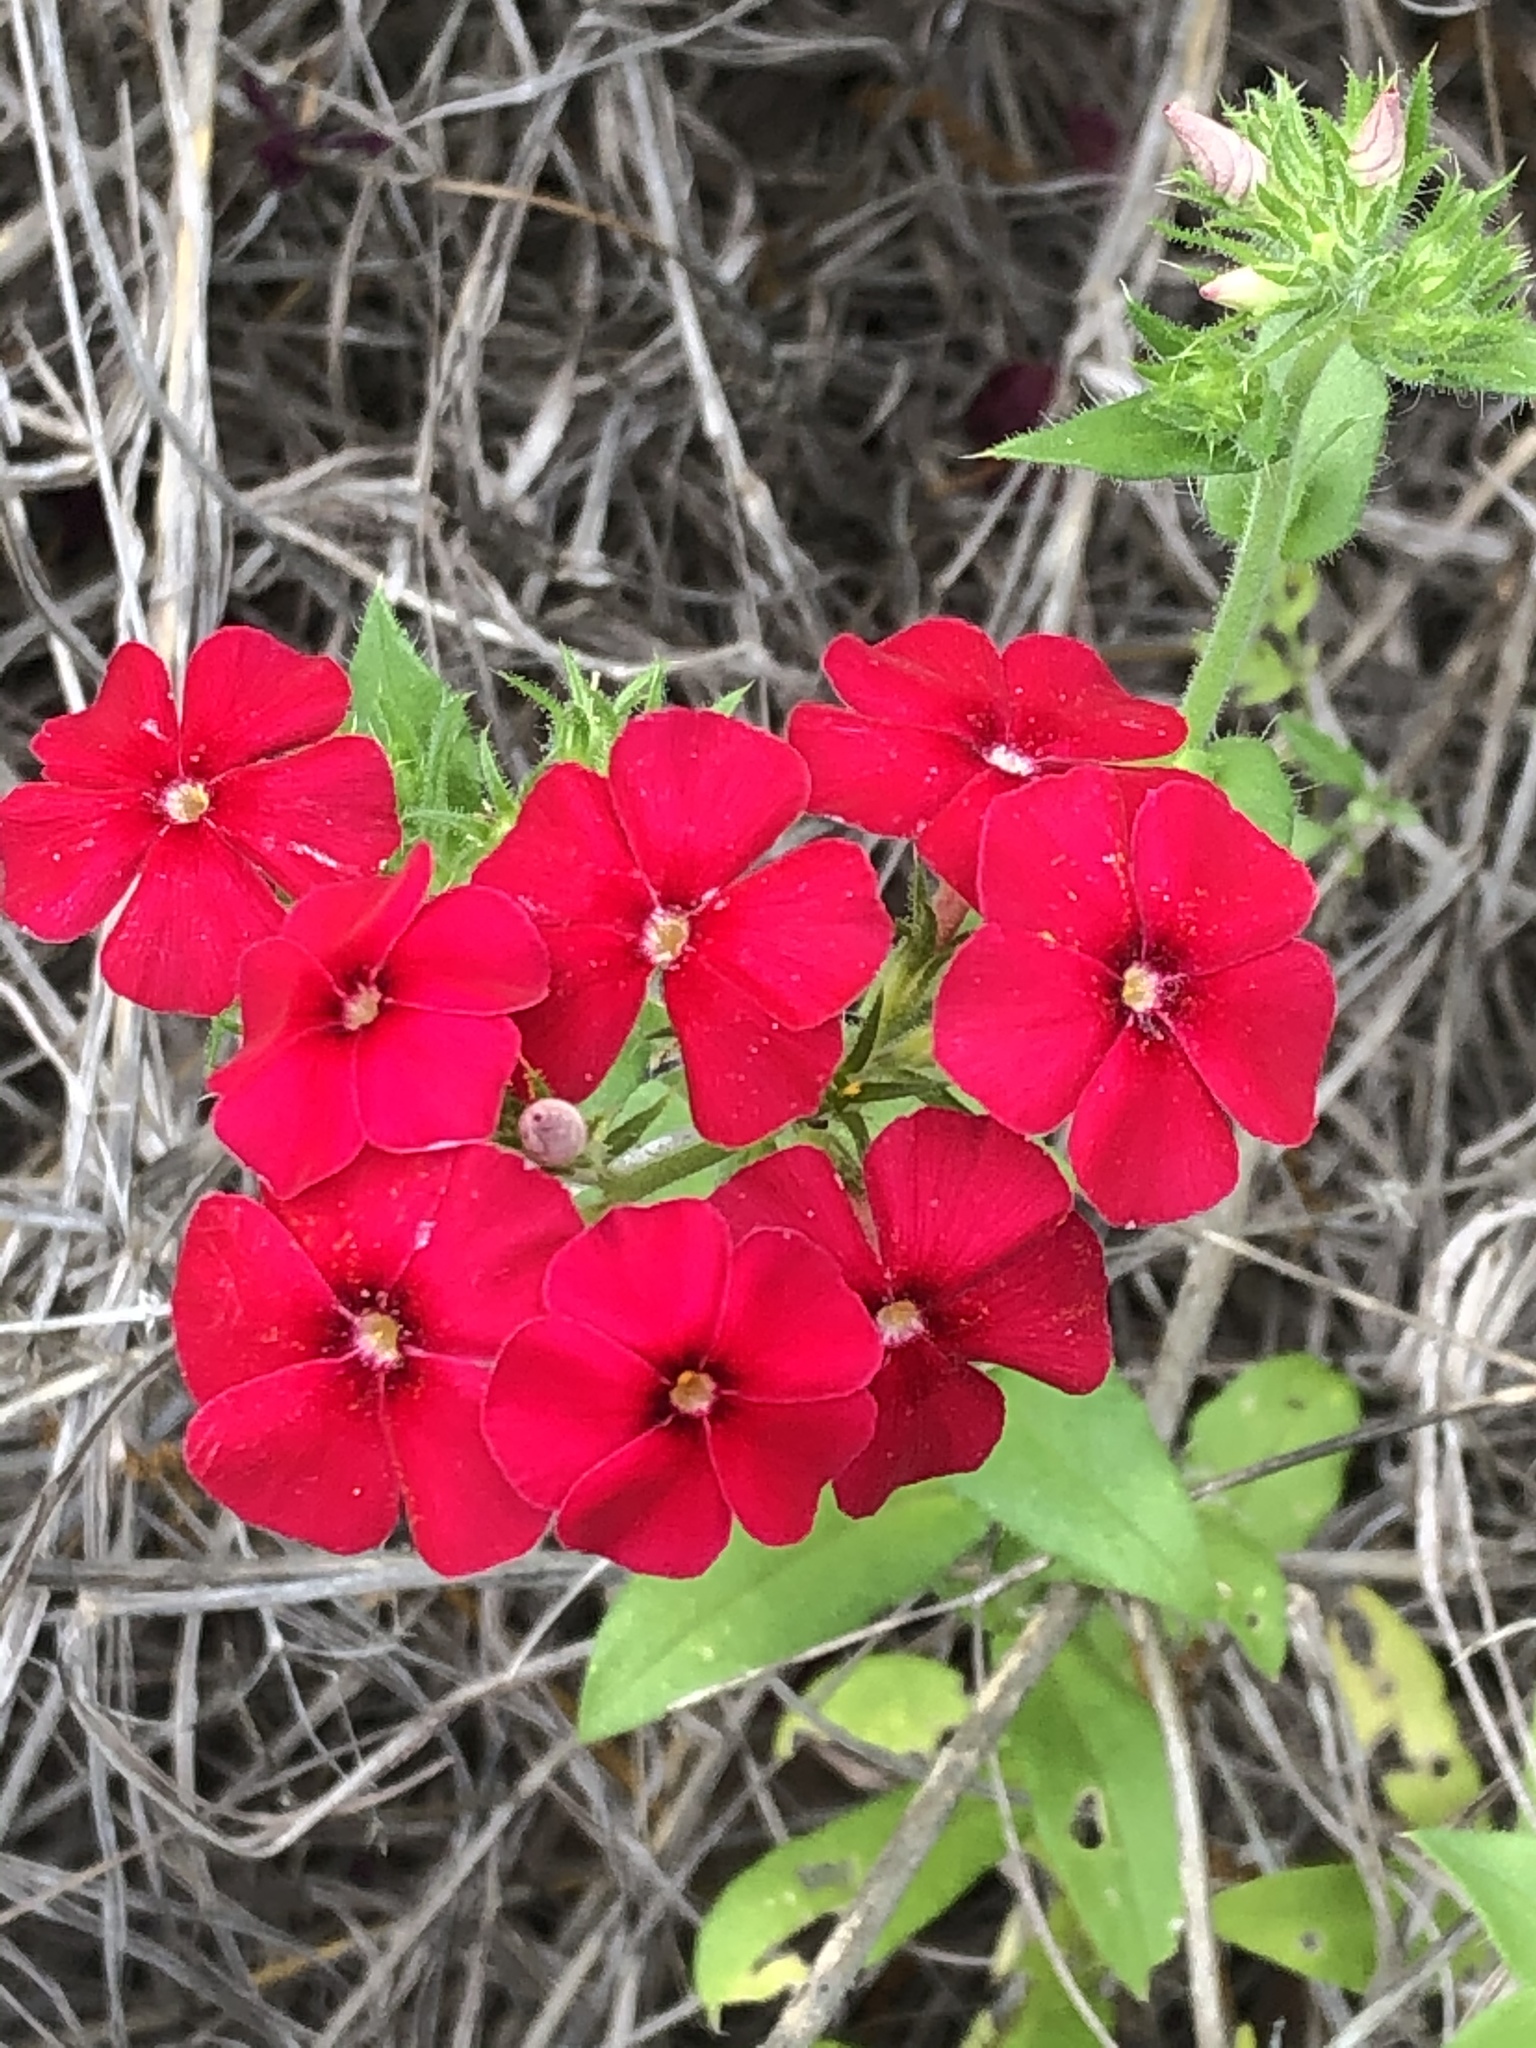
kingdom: Plantae
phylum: Tracheophyta
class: Magnoliopsida
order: Ericales
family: Polemoniaceae
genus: Phlox
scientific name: Phlox drummondii
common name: Drummond's phlox
